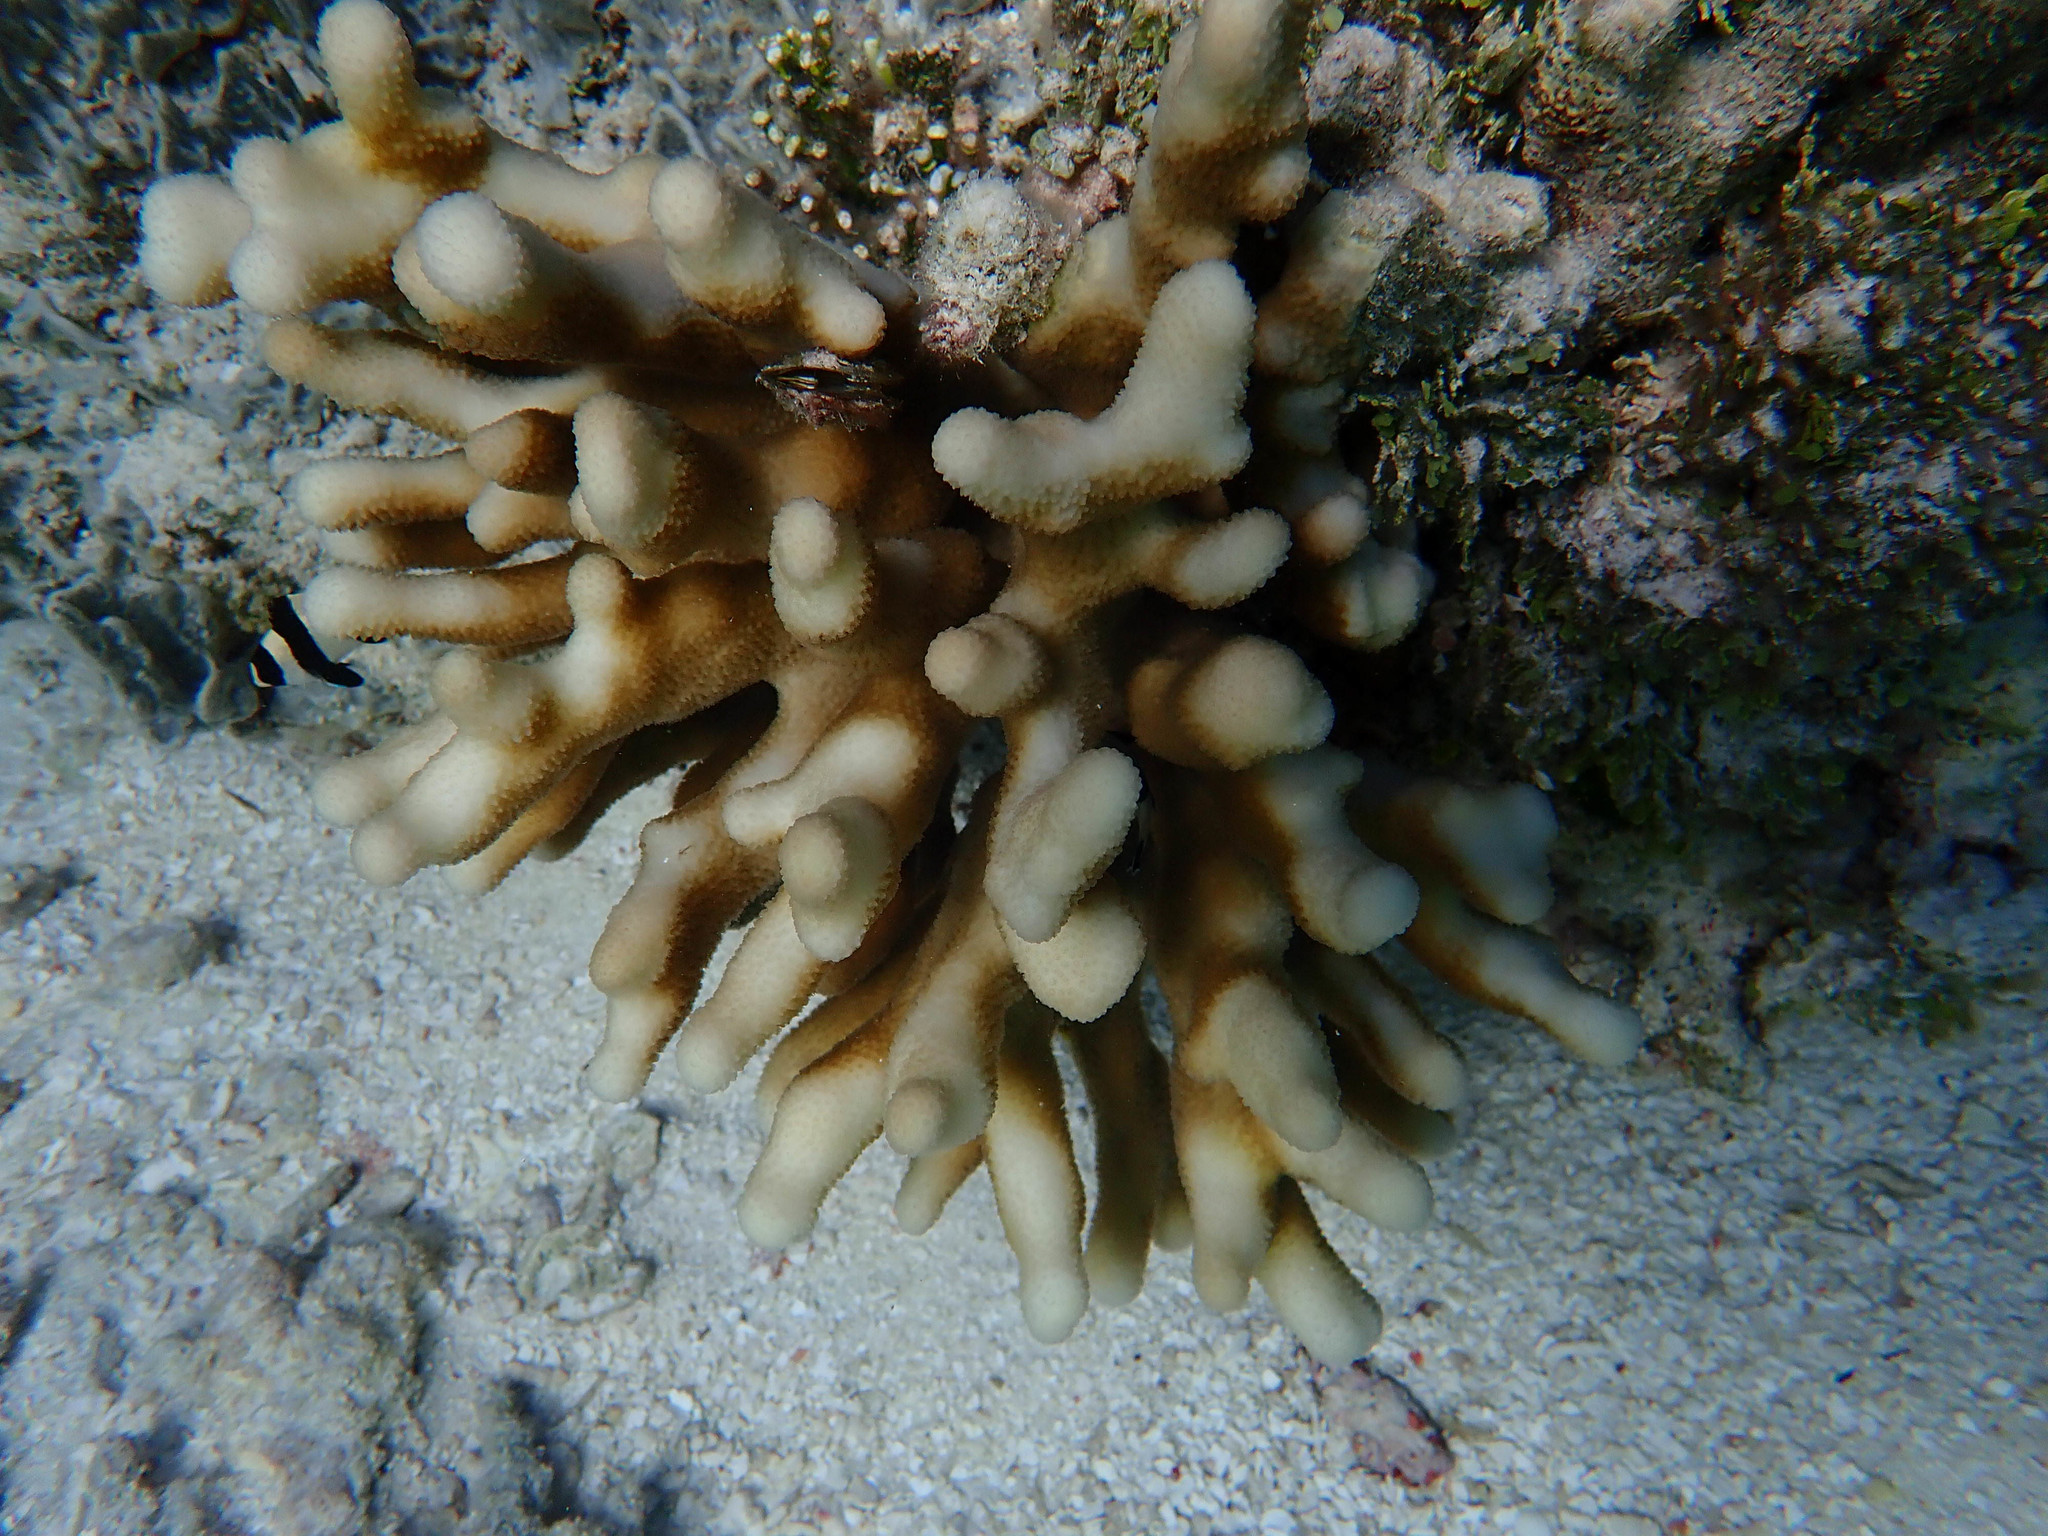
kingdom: Animalia
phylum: Cnidaria
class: Anthozoa
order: Scleractinia
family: Pocilloporidae
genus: Stylophora
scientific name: Stylophora pistillata
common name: Hood coral
